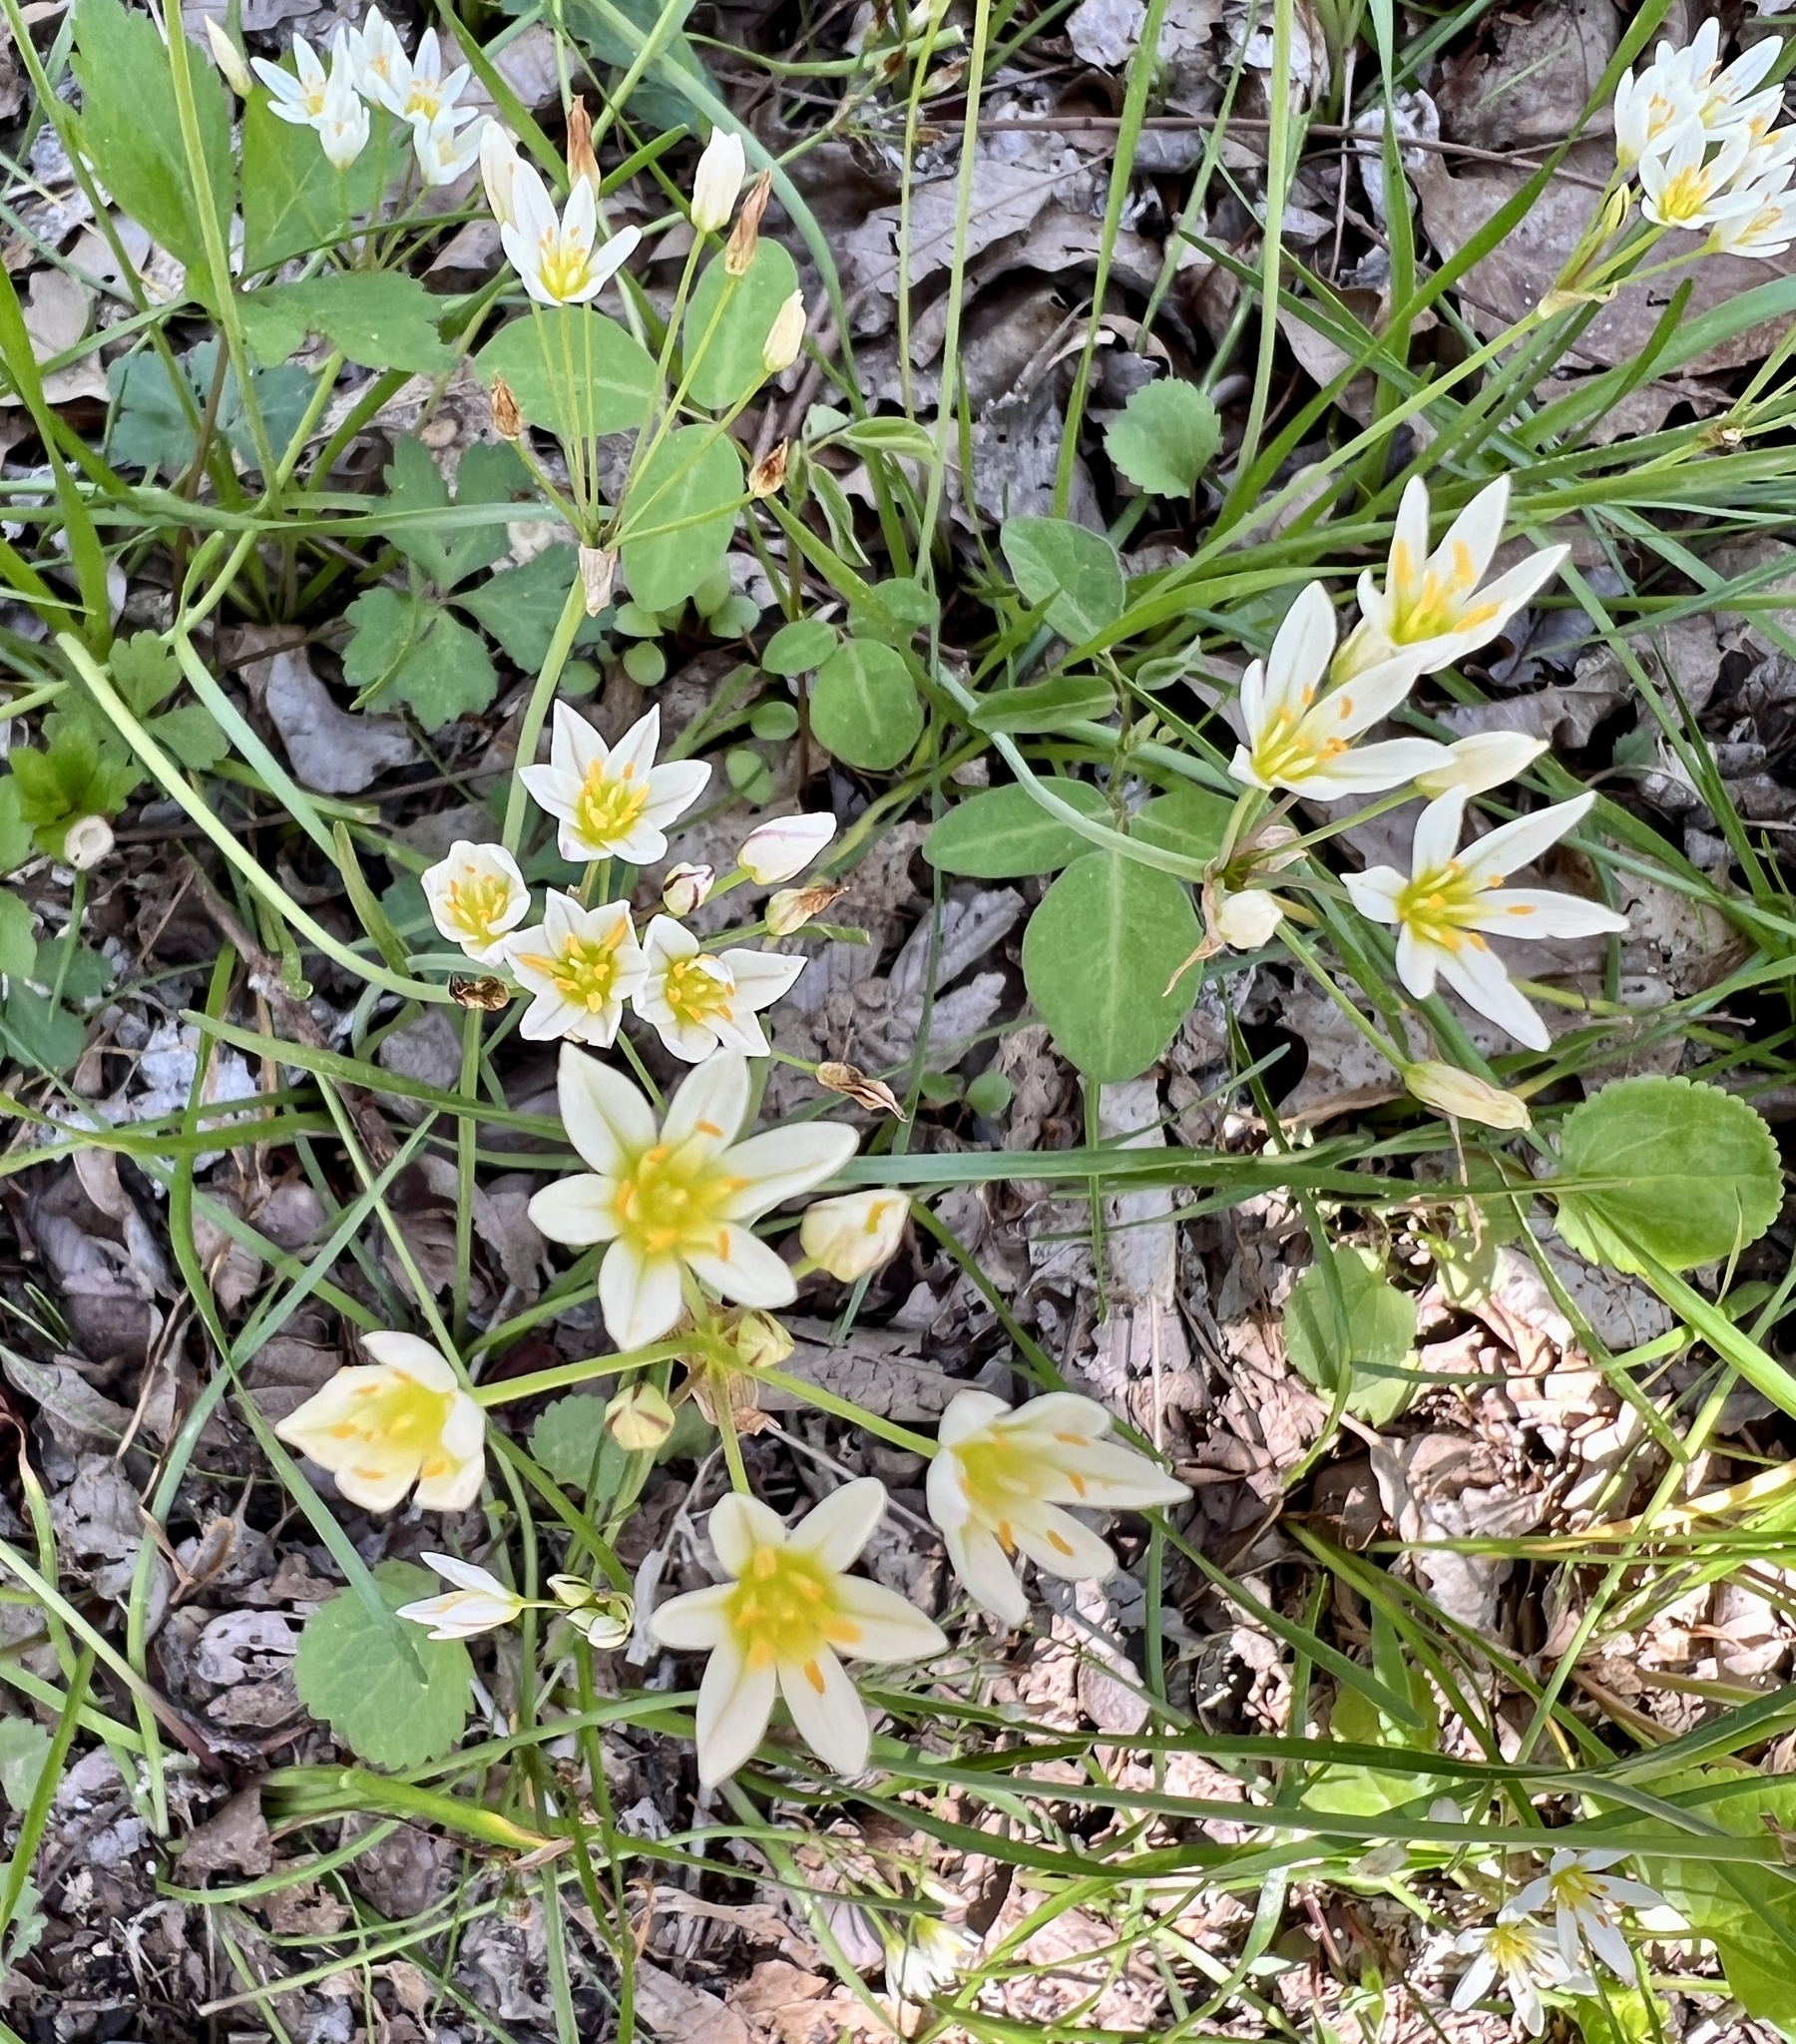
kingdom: Plantae
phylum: Tracheophyta
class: Liliopsida
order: Asparagales
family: Amaryllidaceae
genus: Nothoscordum
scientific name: Nothoscordum bivalve
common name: Crow-poison
